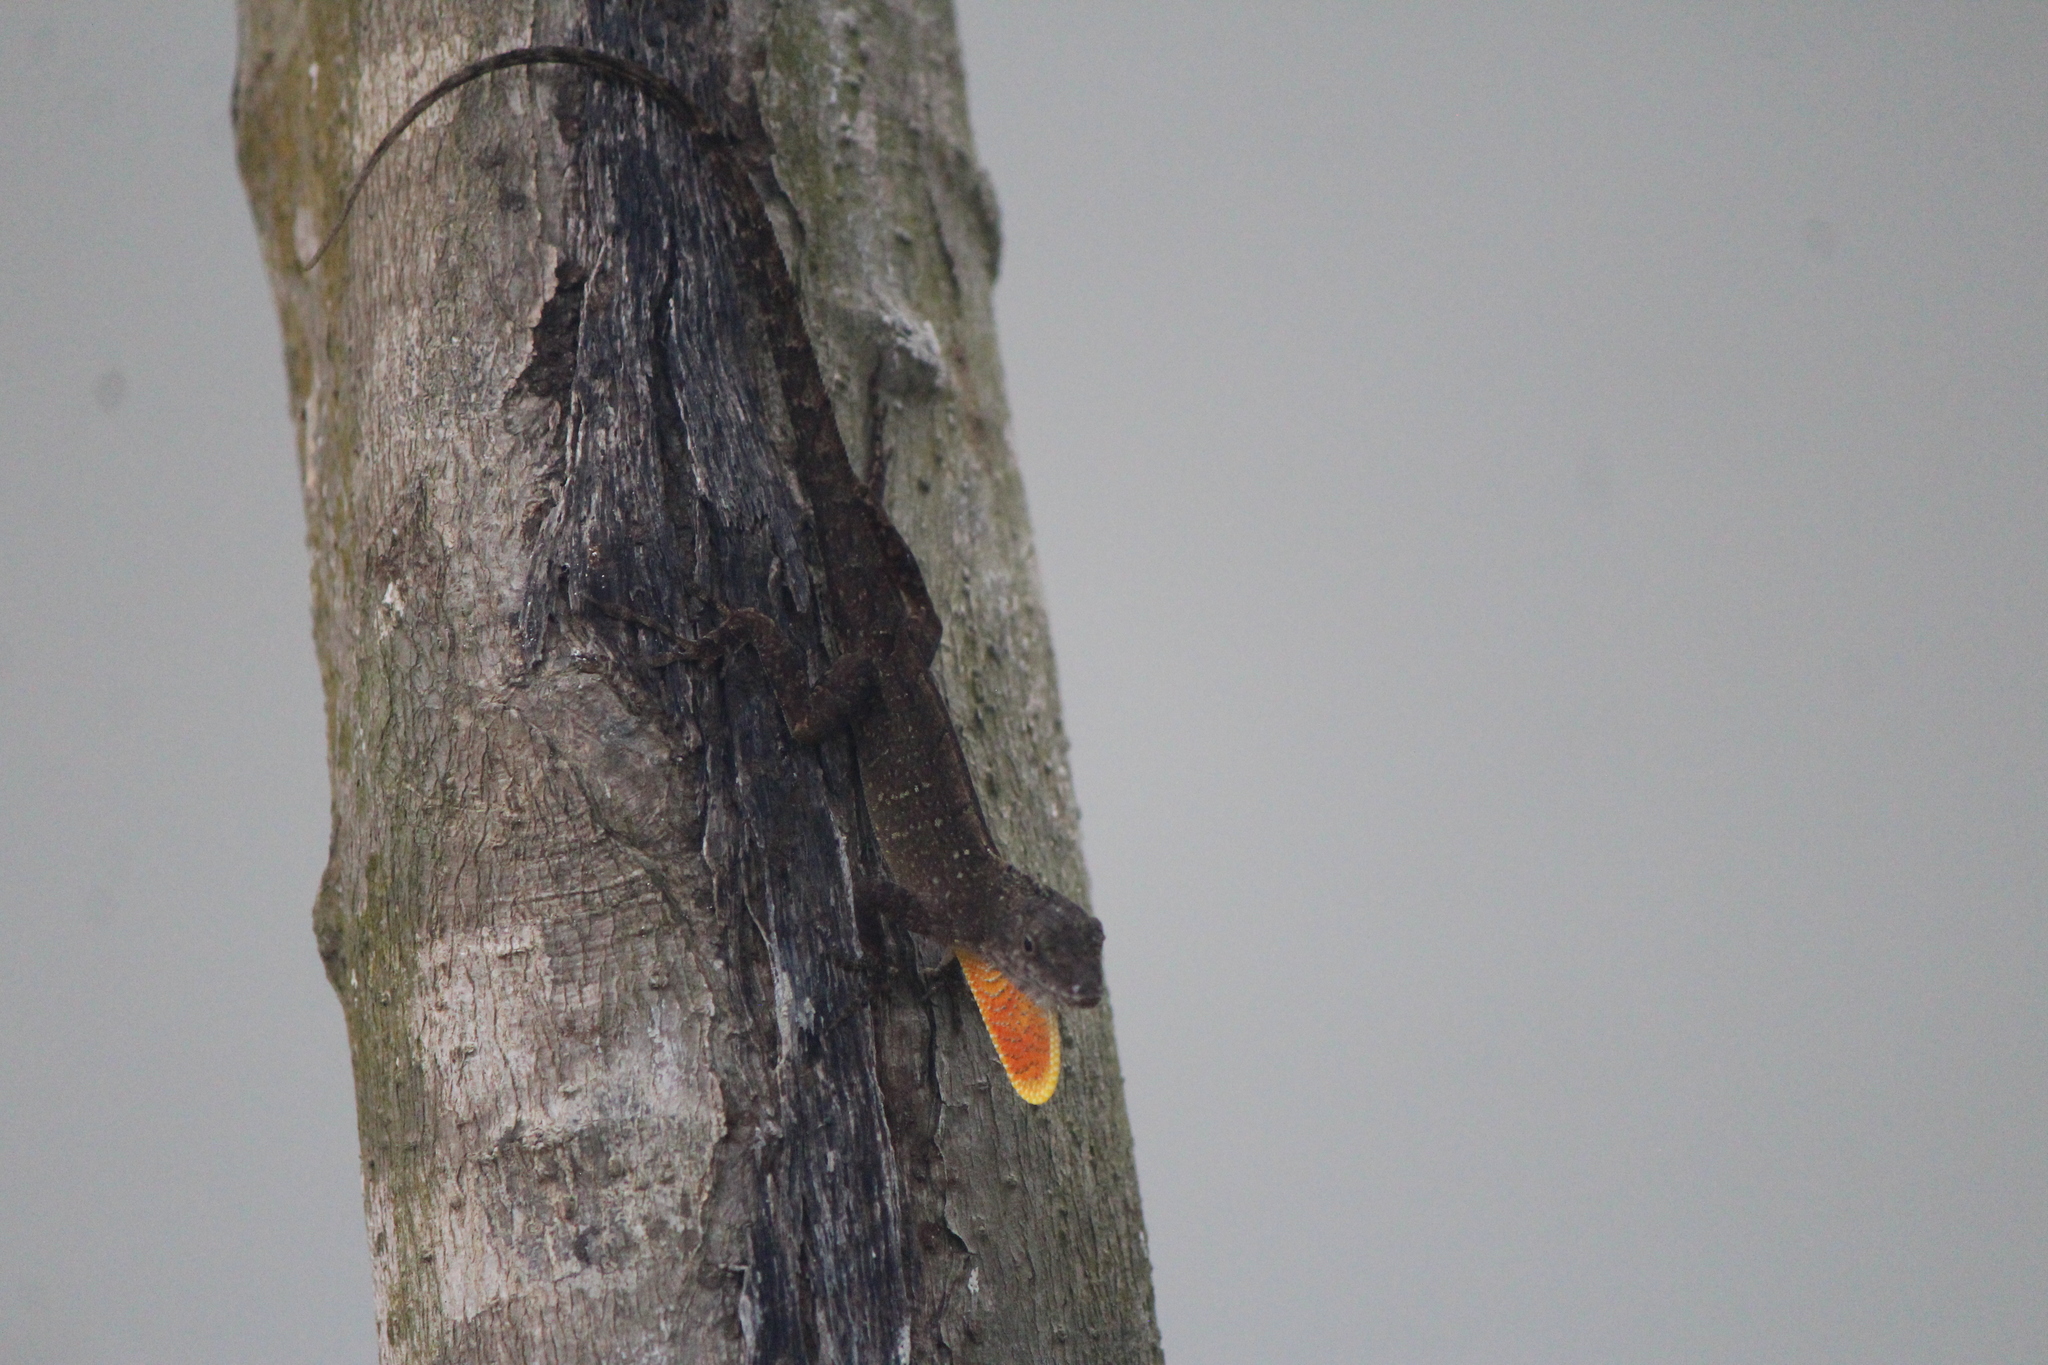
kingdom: Animalia
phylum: Chordata
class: Squamata
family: Dactyloidae
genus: Anolis
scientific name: Anolis sagrei
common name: Brown anole
